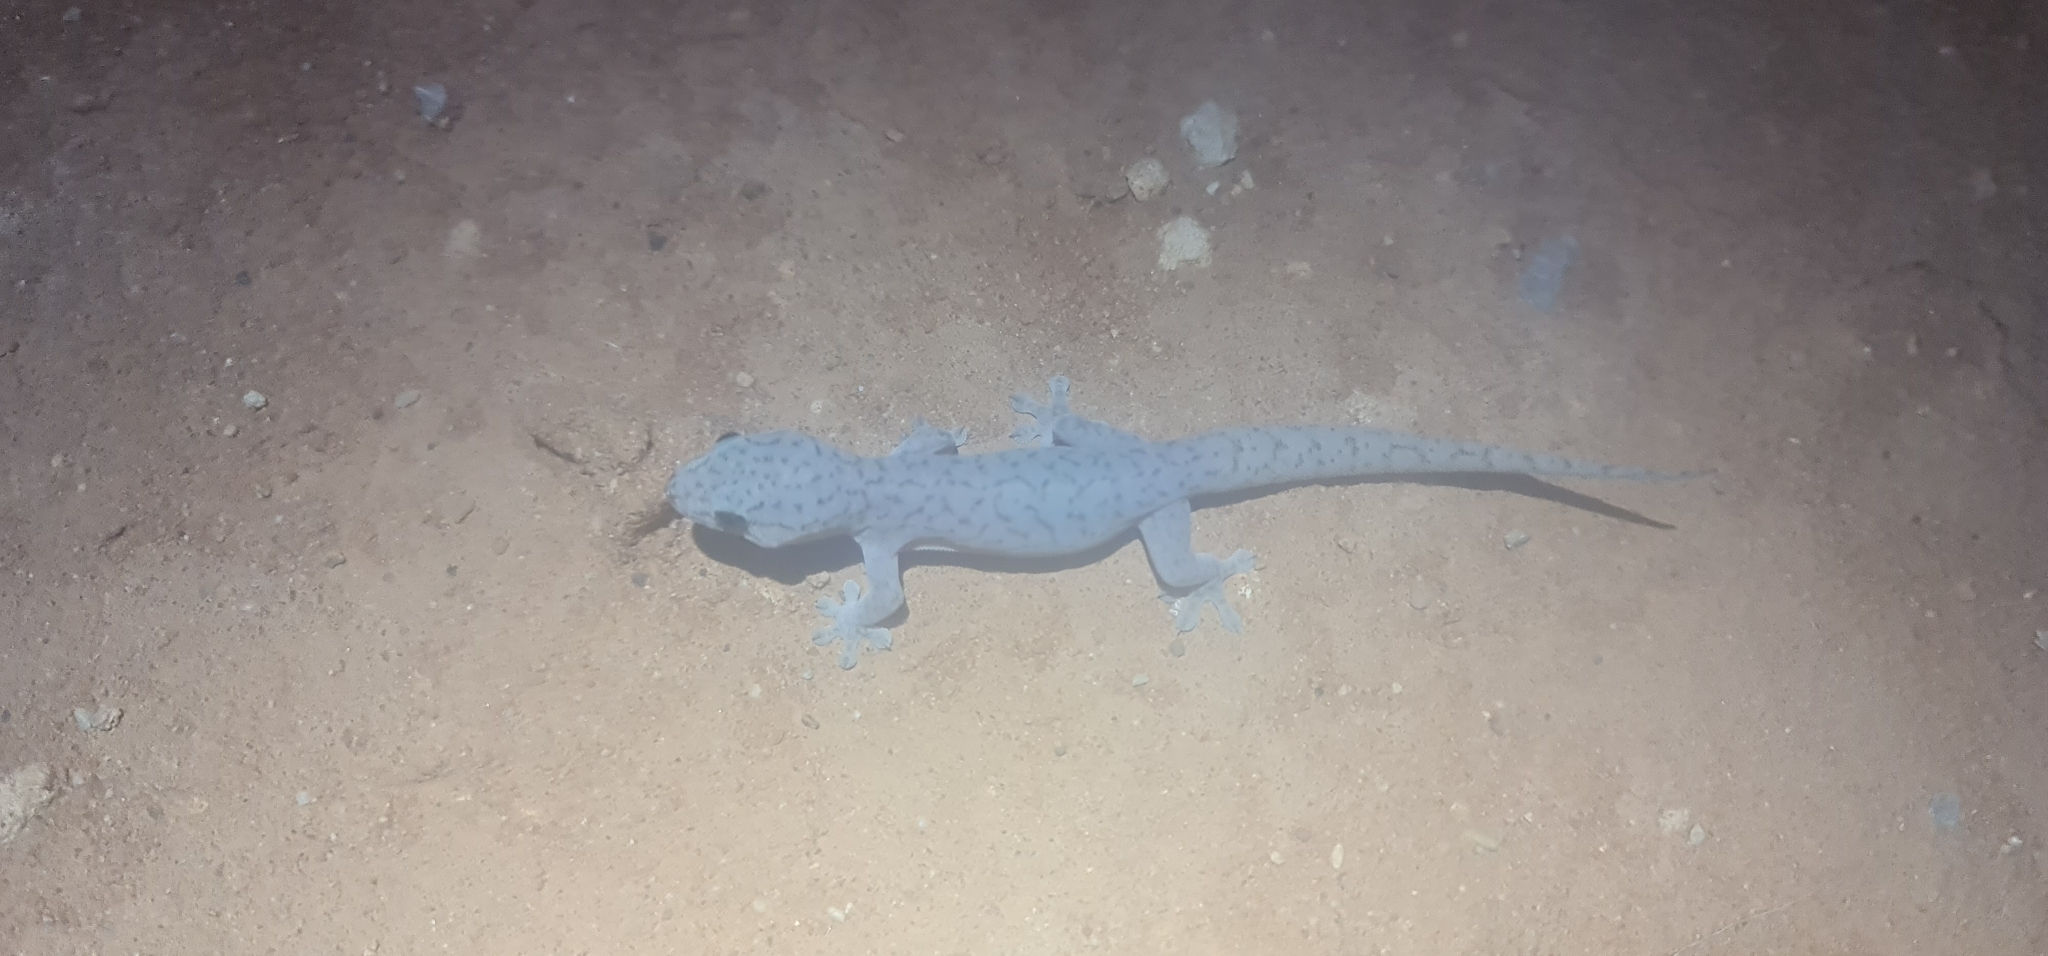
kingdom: Animalia
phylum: Chordata
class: Squamata
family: Gekkonidae
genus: Gehyra
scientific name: Gehyra purpurascens
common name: Purplish dtella
